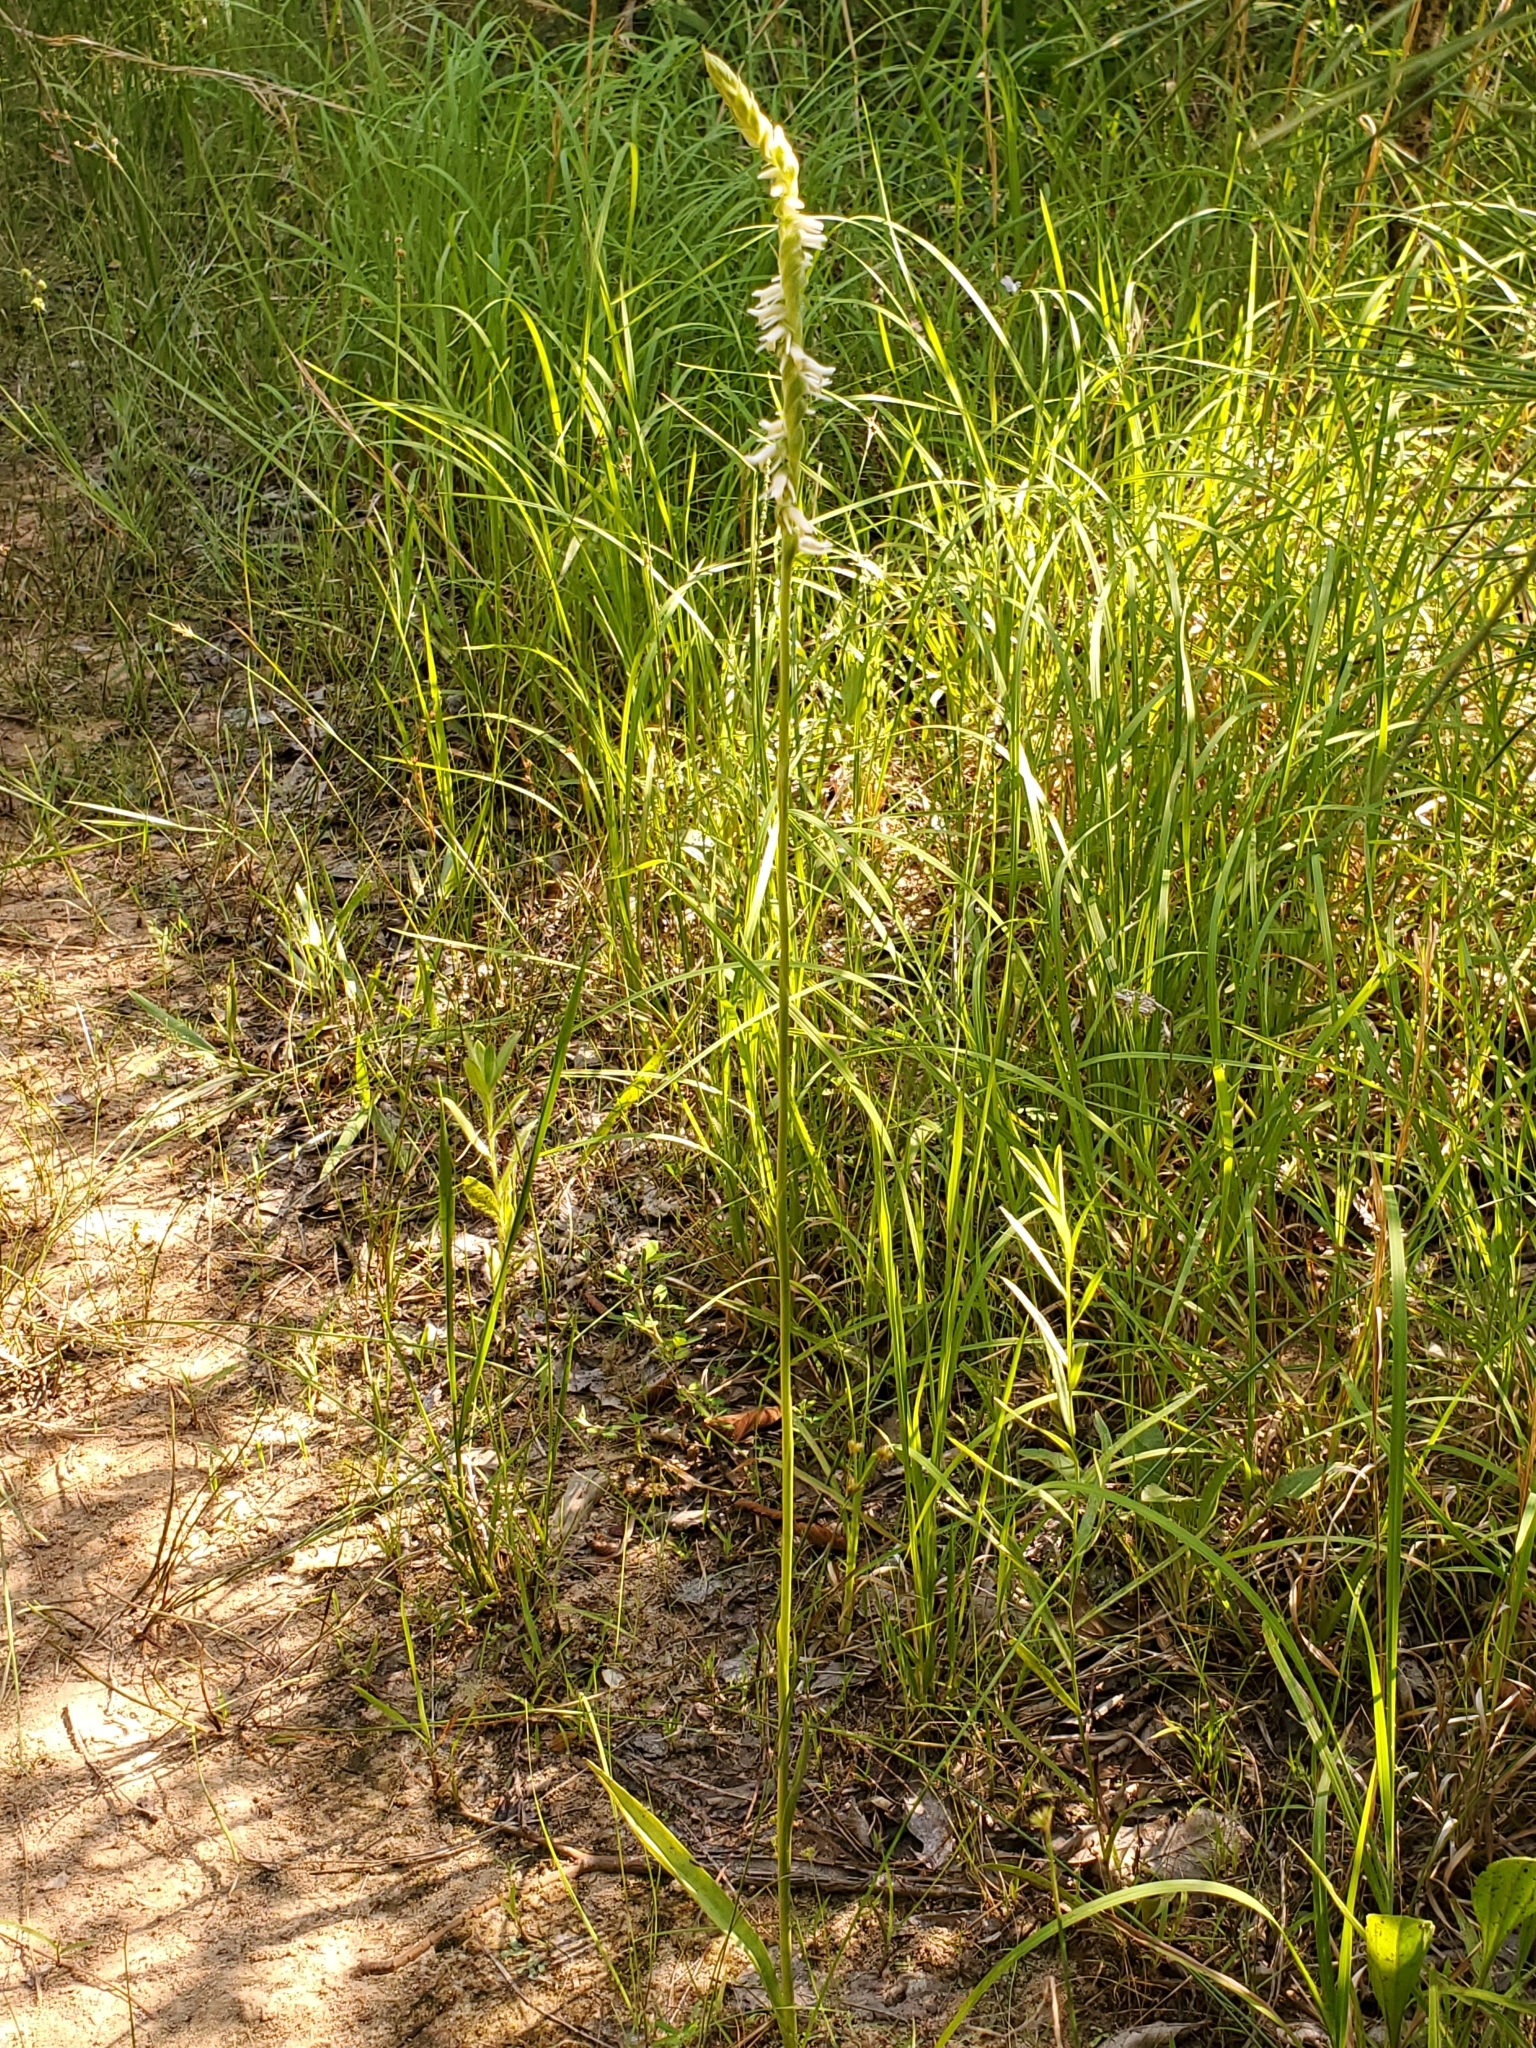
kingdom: Plantae
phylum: Tracheophyta
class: Liliopsida
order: Asparagales
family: Orchidaceae
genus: Spiranthes
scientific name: Spiranthes vernalis
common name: Spring ladies'-tresses
